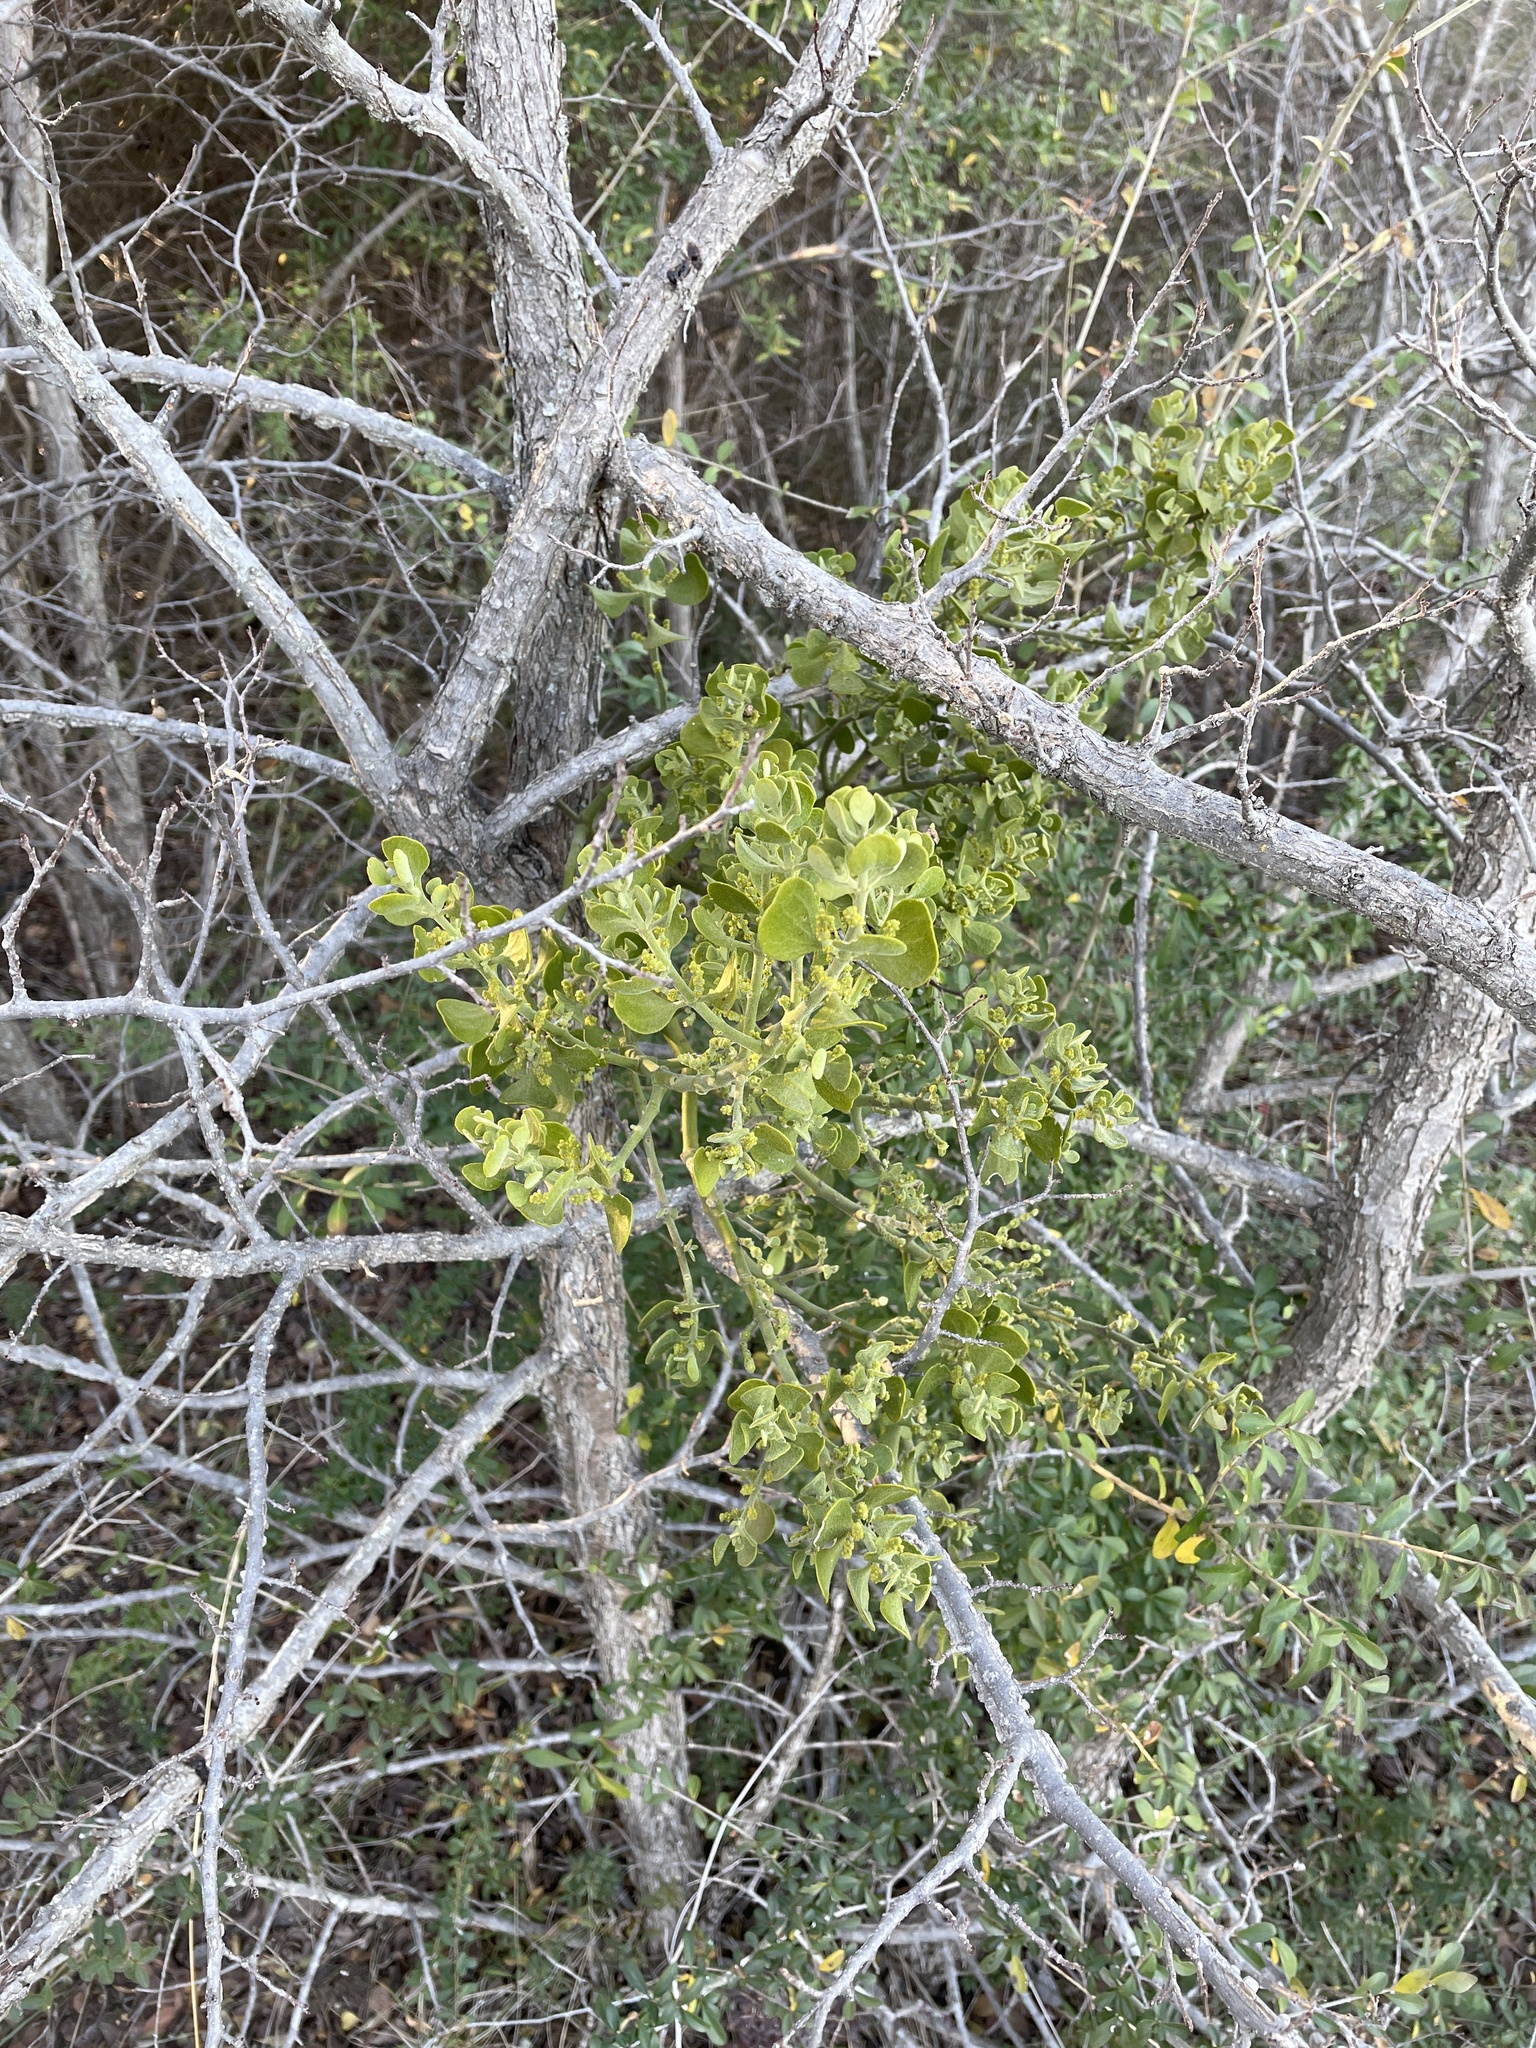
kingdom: Plantae
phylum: Tracheophyta
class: Magnoliopsida
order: Santalales
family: Viscaceae
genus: Phoradendron
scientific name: Phoradendron leucarpum
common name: Pacific mistletoe
